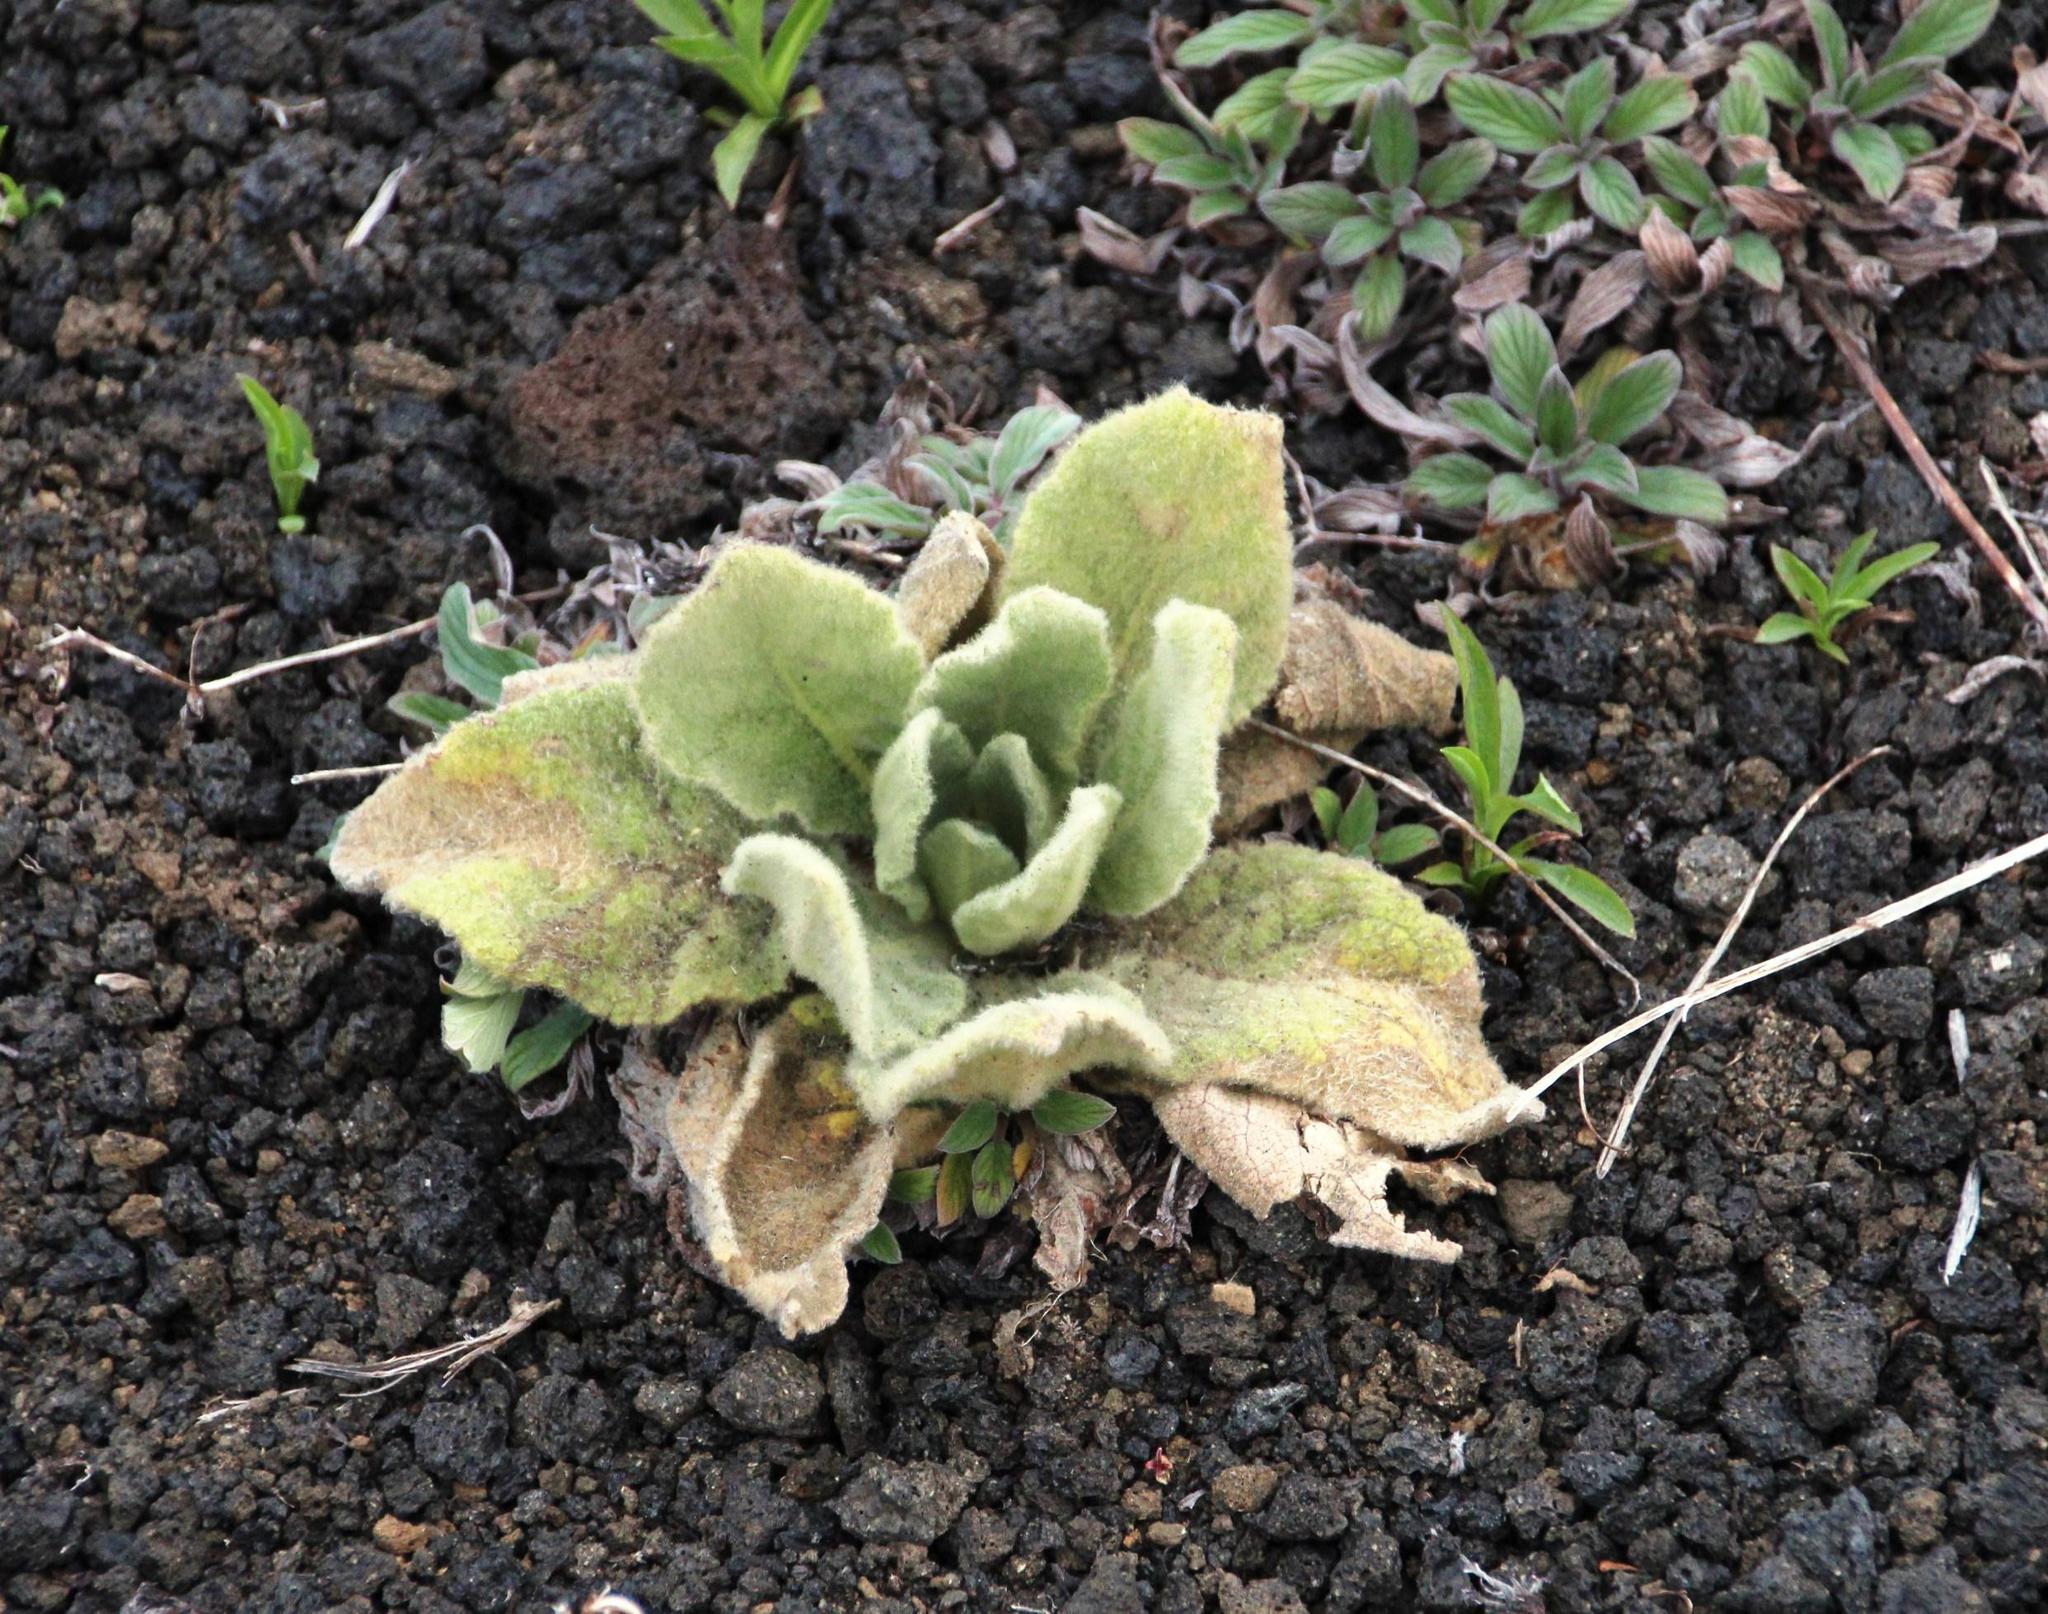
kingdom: Plantae
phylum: Tracheophyta
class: Magnoliopsida
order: Lamiales
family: Scrophulariaceae
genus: Verbascum
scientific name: Verbascum thapsus
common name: Common mullein
